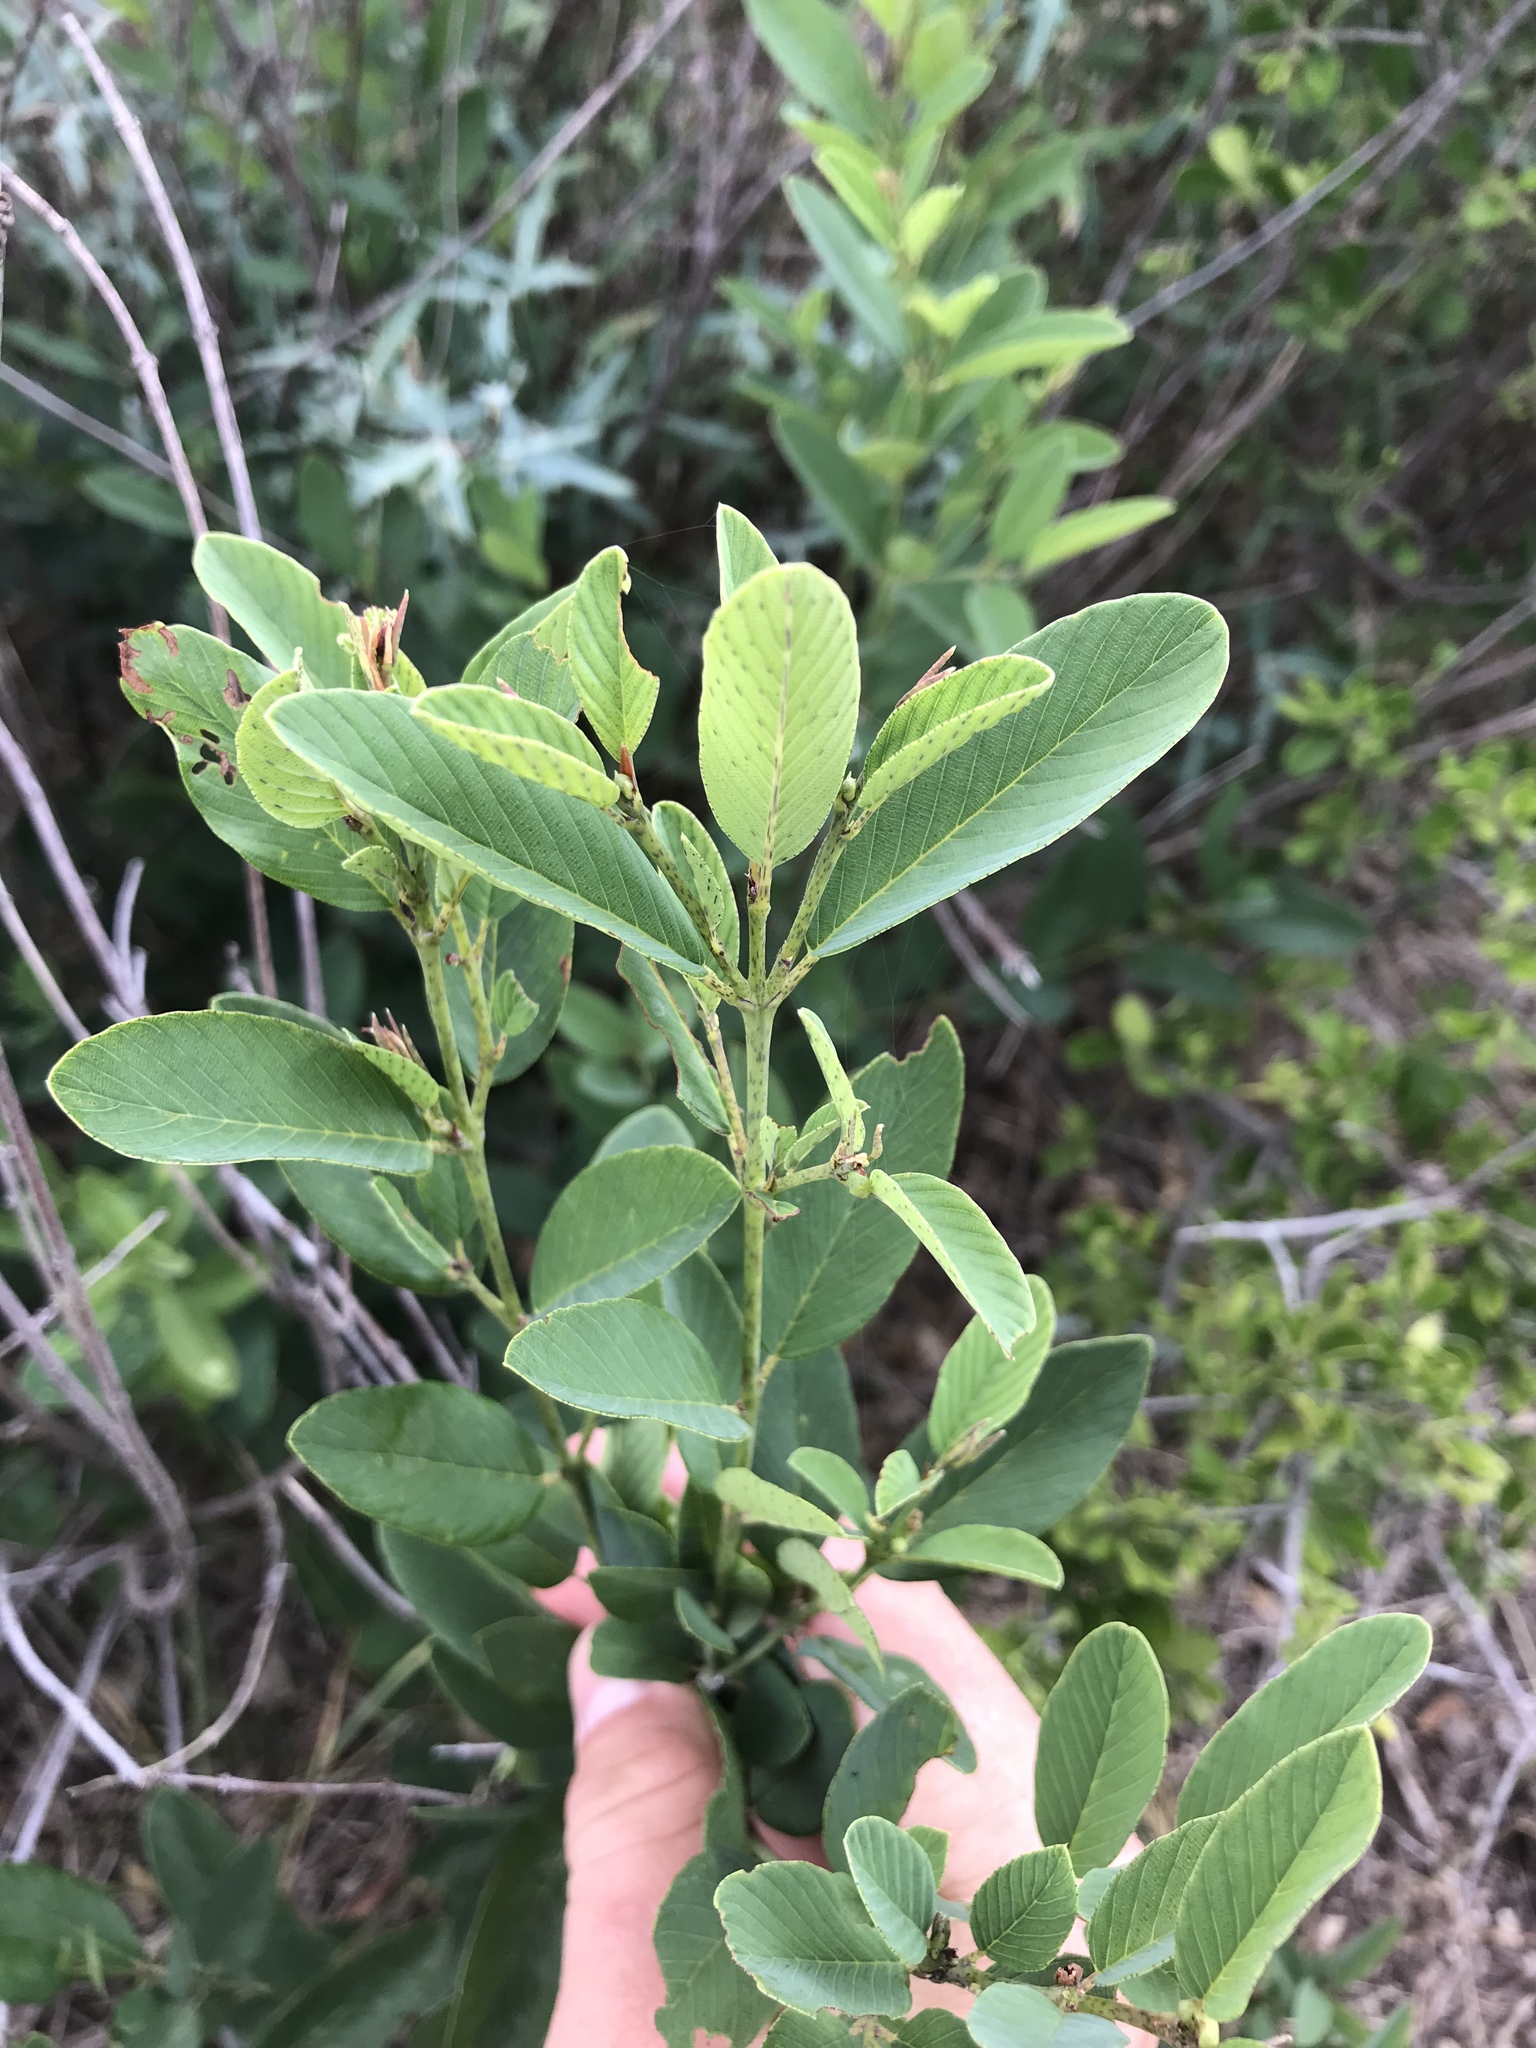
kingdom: Plantae
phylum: Tracheophyta
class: Magnoliopsida
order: Rosales
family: Rhamnaceae
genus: Karwinskia
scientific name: Karwinskia humboldtiana
